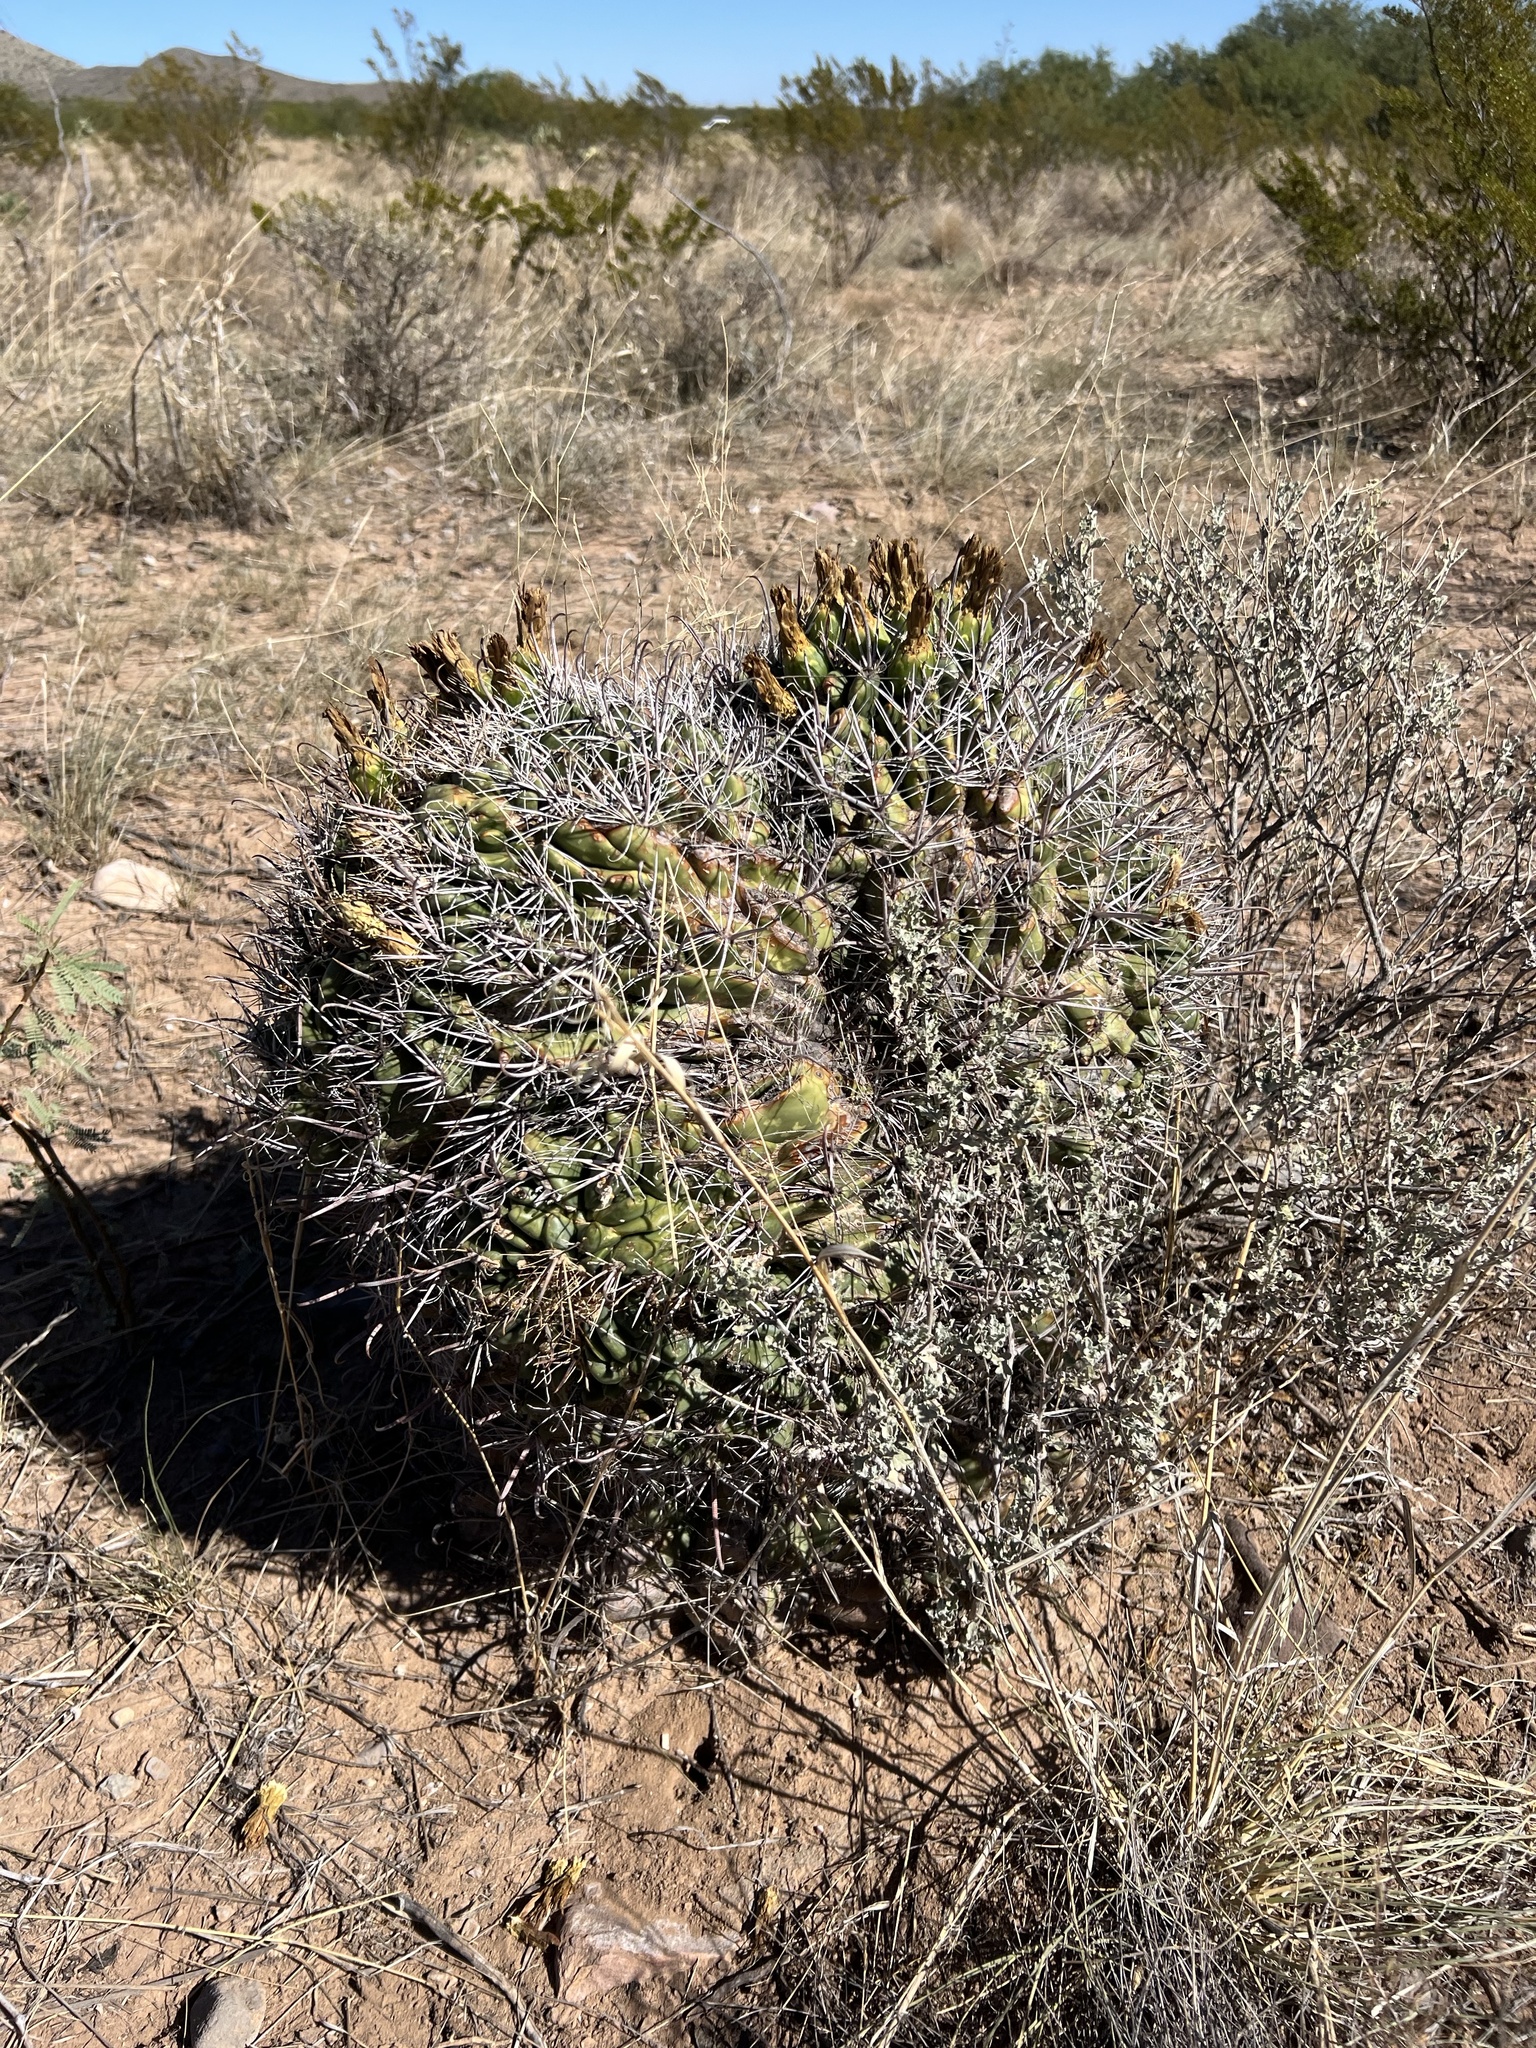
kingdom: Plantae
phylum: Tracheophyta
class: Magnoliopsida
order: Caryophyllales
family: Cactaceae
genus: Ferocactus
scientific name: Ferocactus wislizeni
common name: Candy barrel cactus
